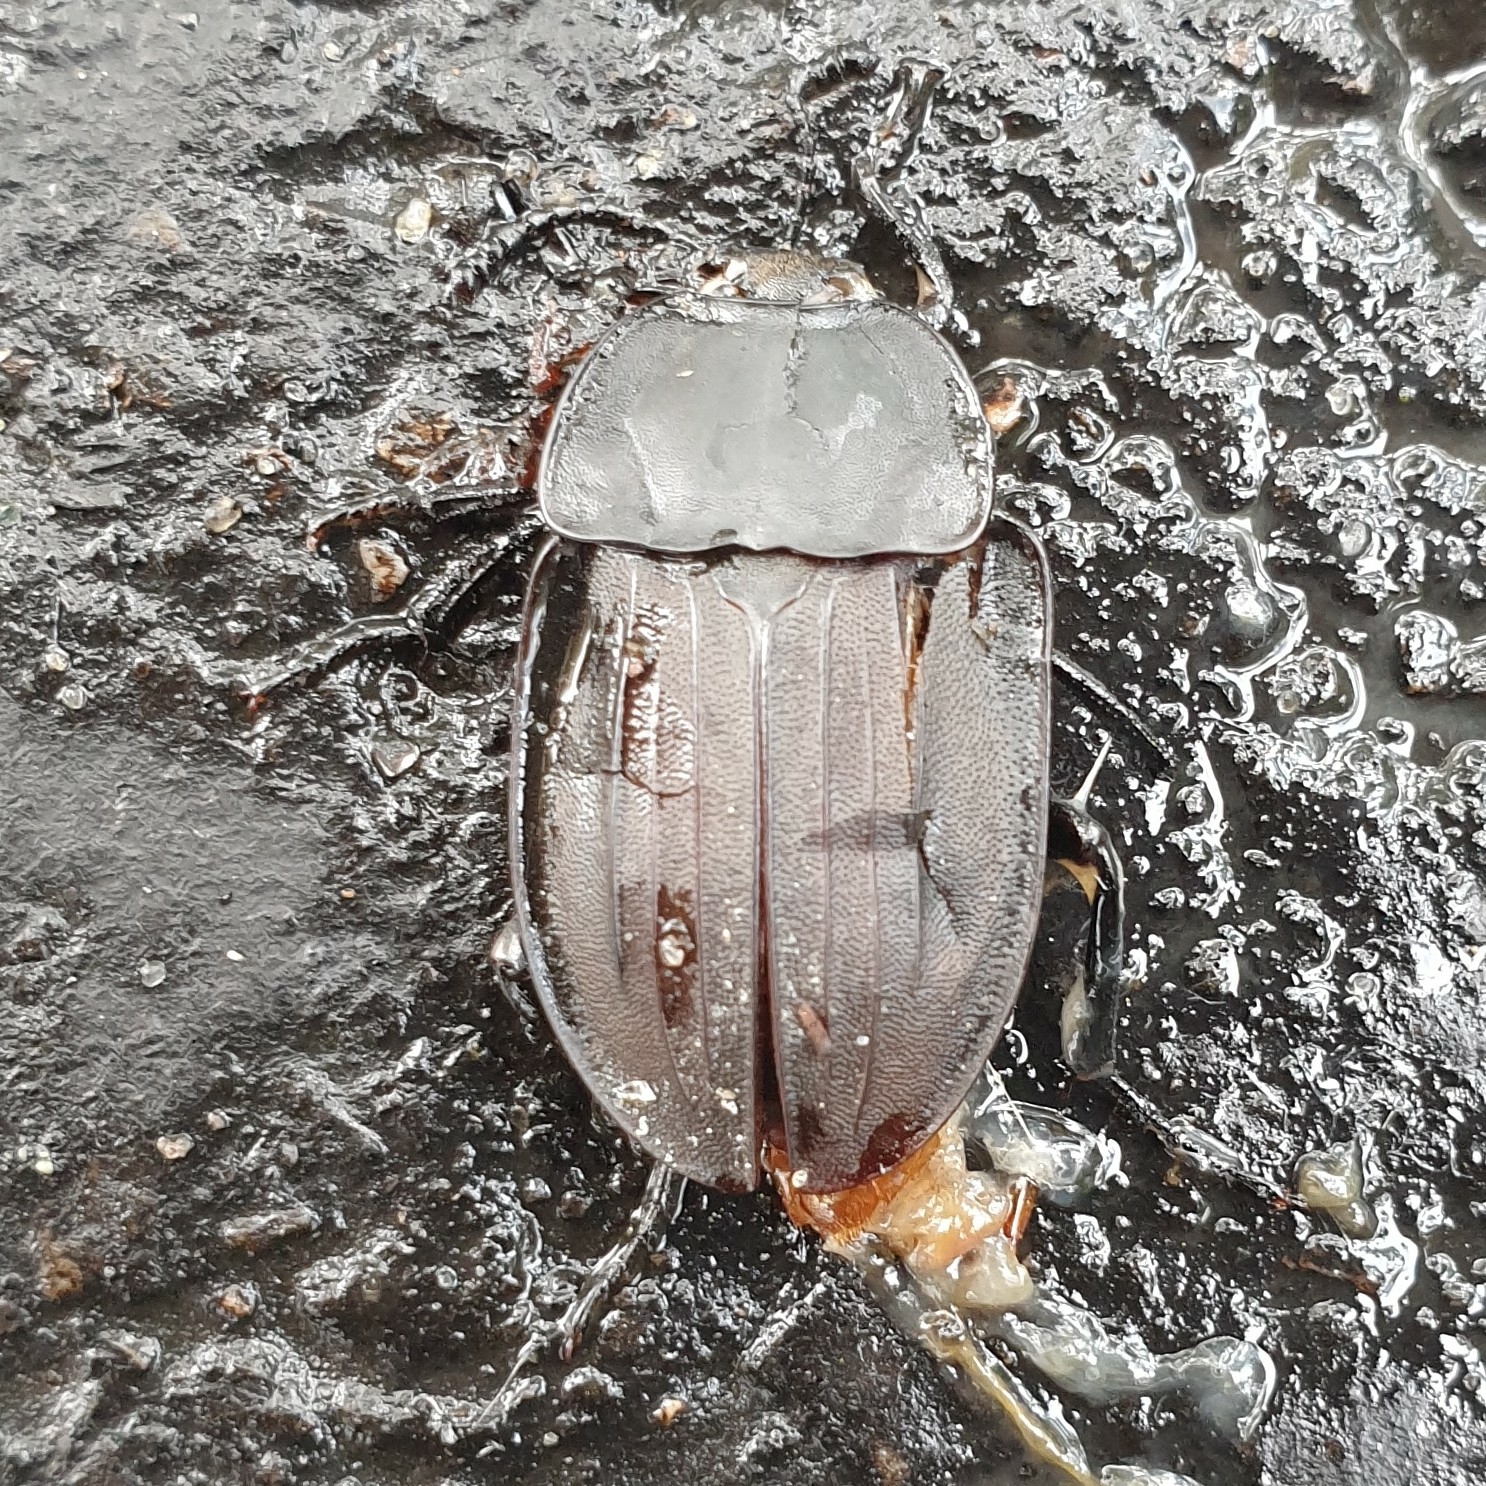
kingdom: Animalia
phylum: Arthropoda
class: Insecta
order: Coleoptera
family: Staphylinidae
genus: Silpha
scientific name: Silpha carinata
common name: Silphid beetle
